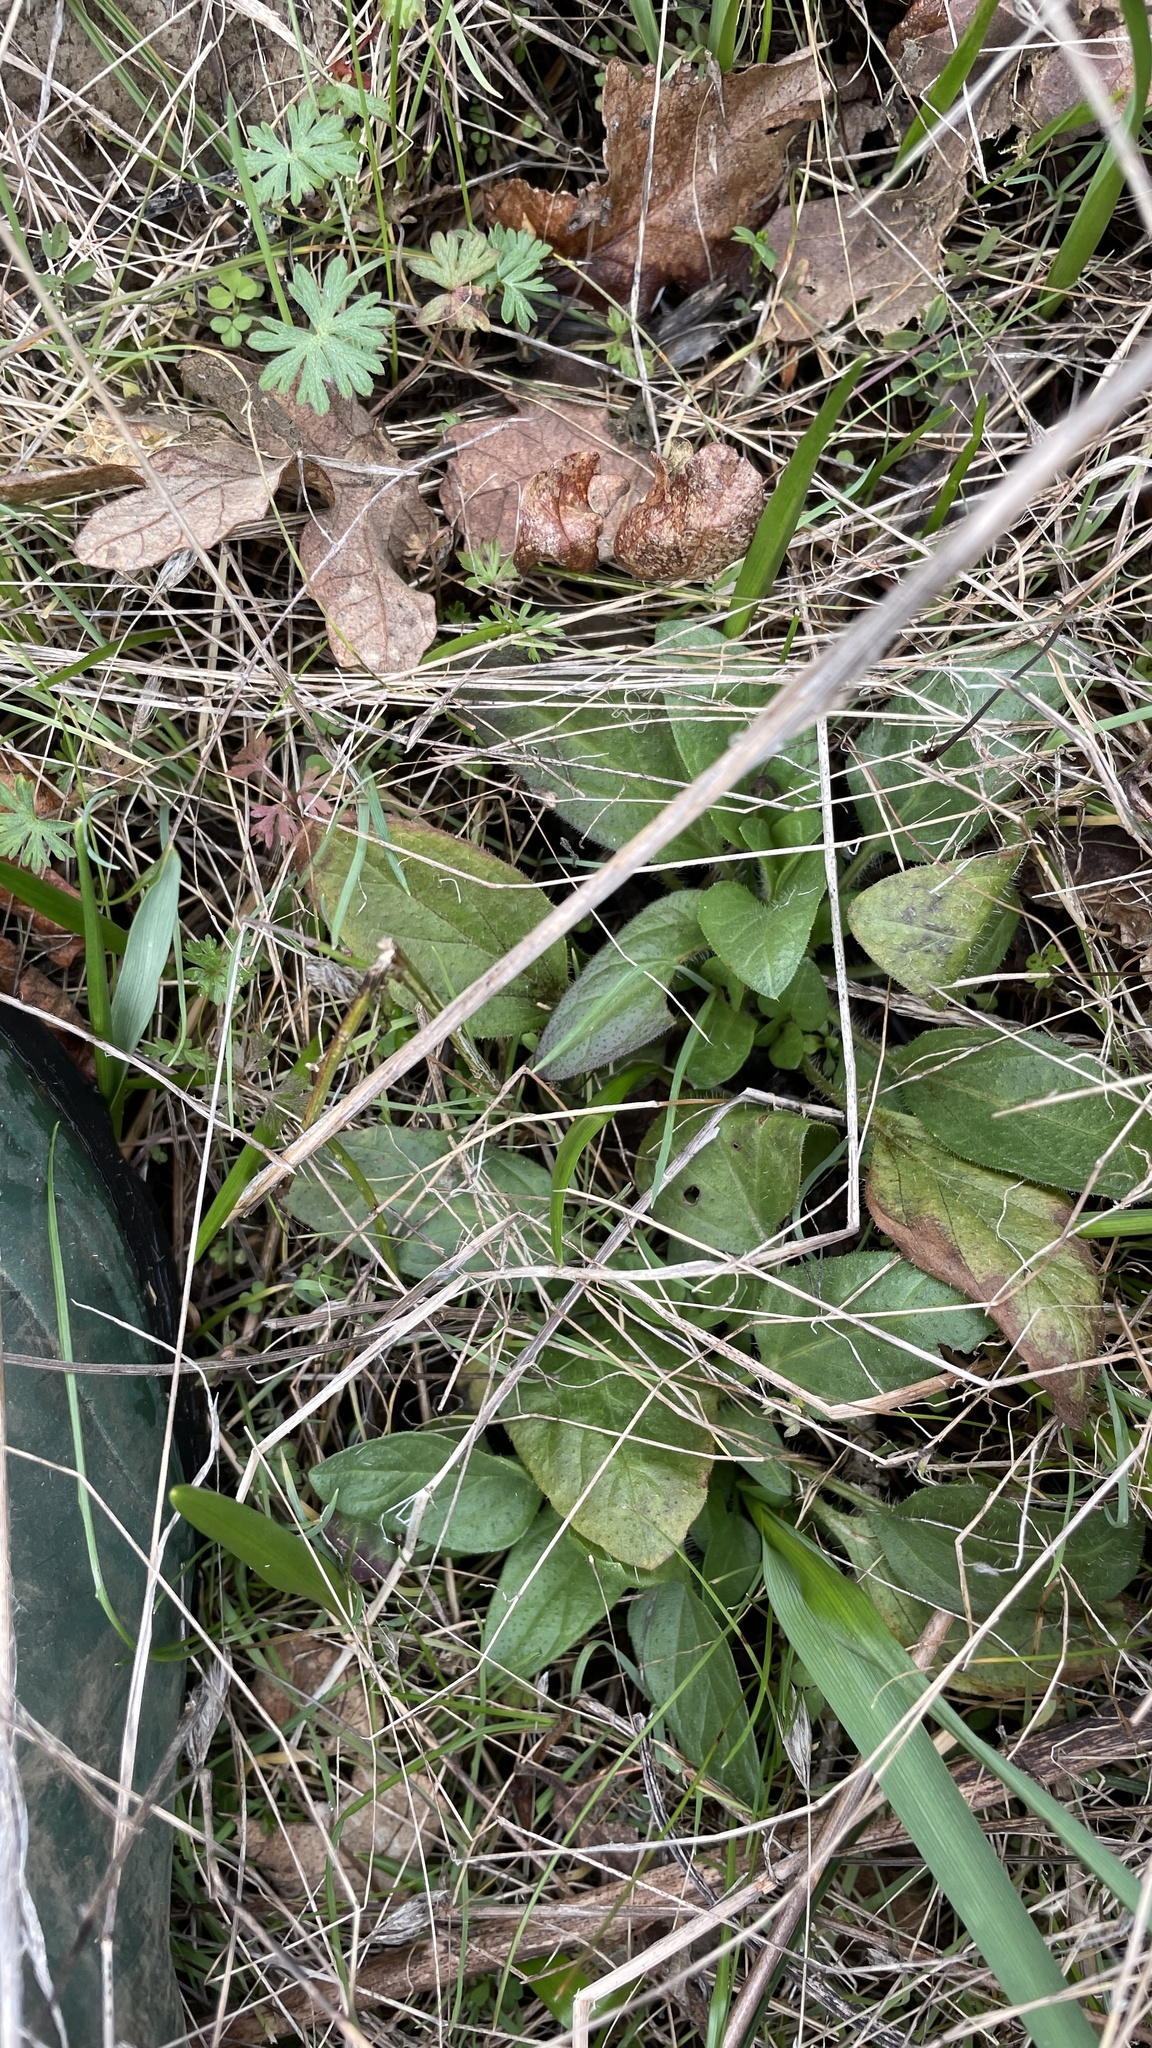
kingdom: Plantae
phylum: Tracheophyta
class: Magnoliopsida
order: Lamiales
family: Lamiaceae
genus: Prunella
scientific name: Prunella vulgaris
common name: Heal-all
